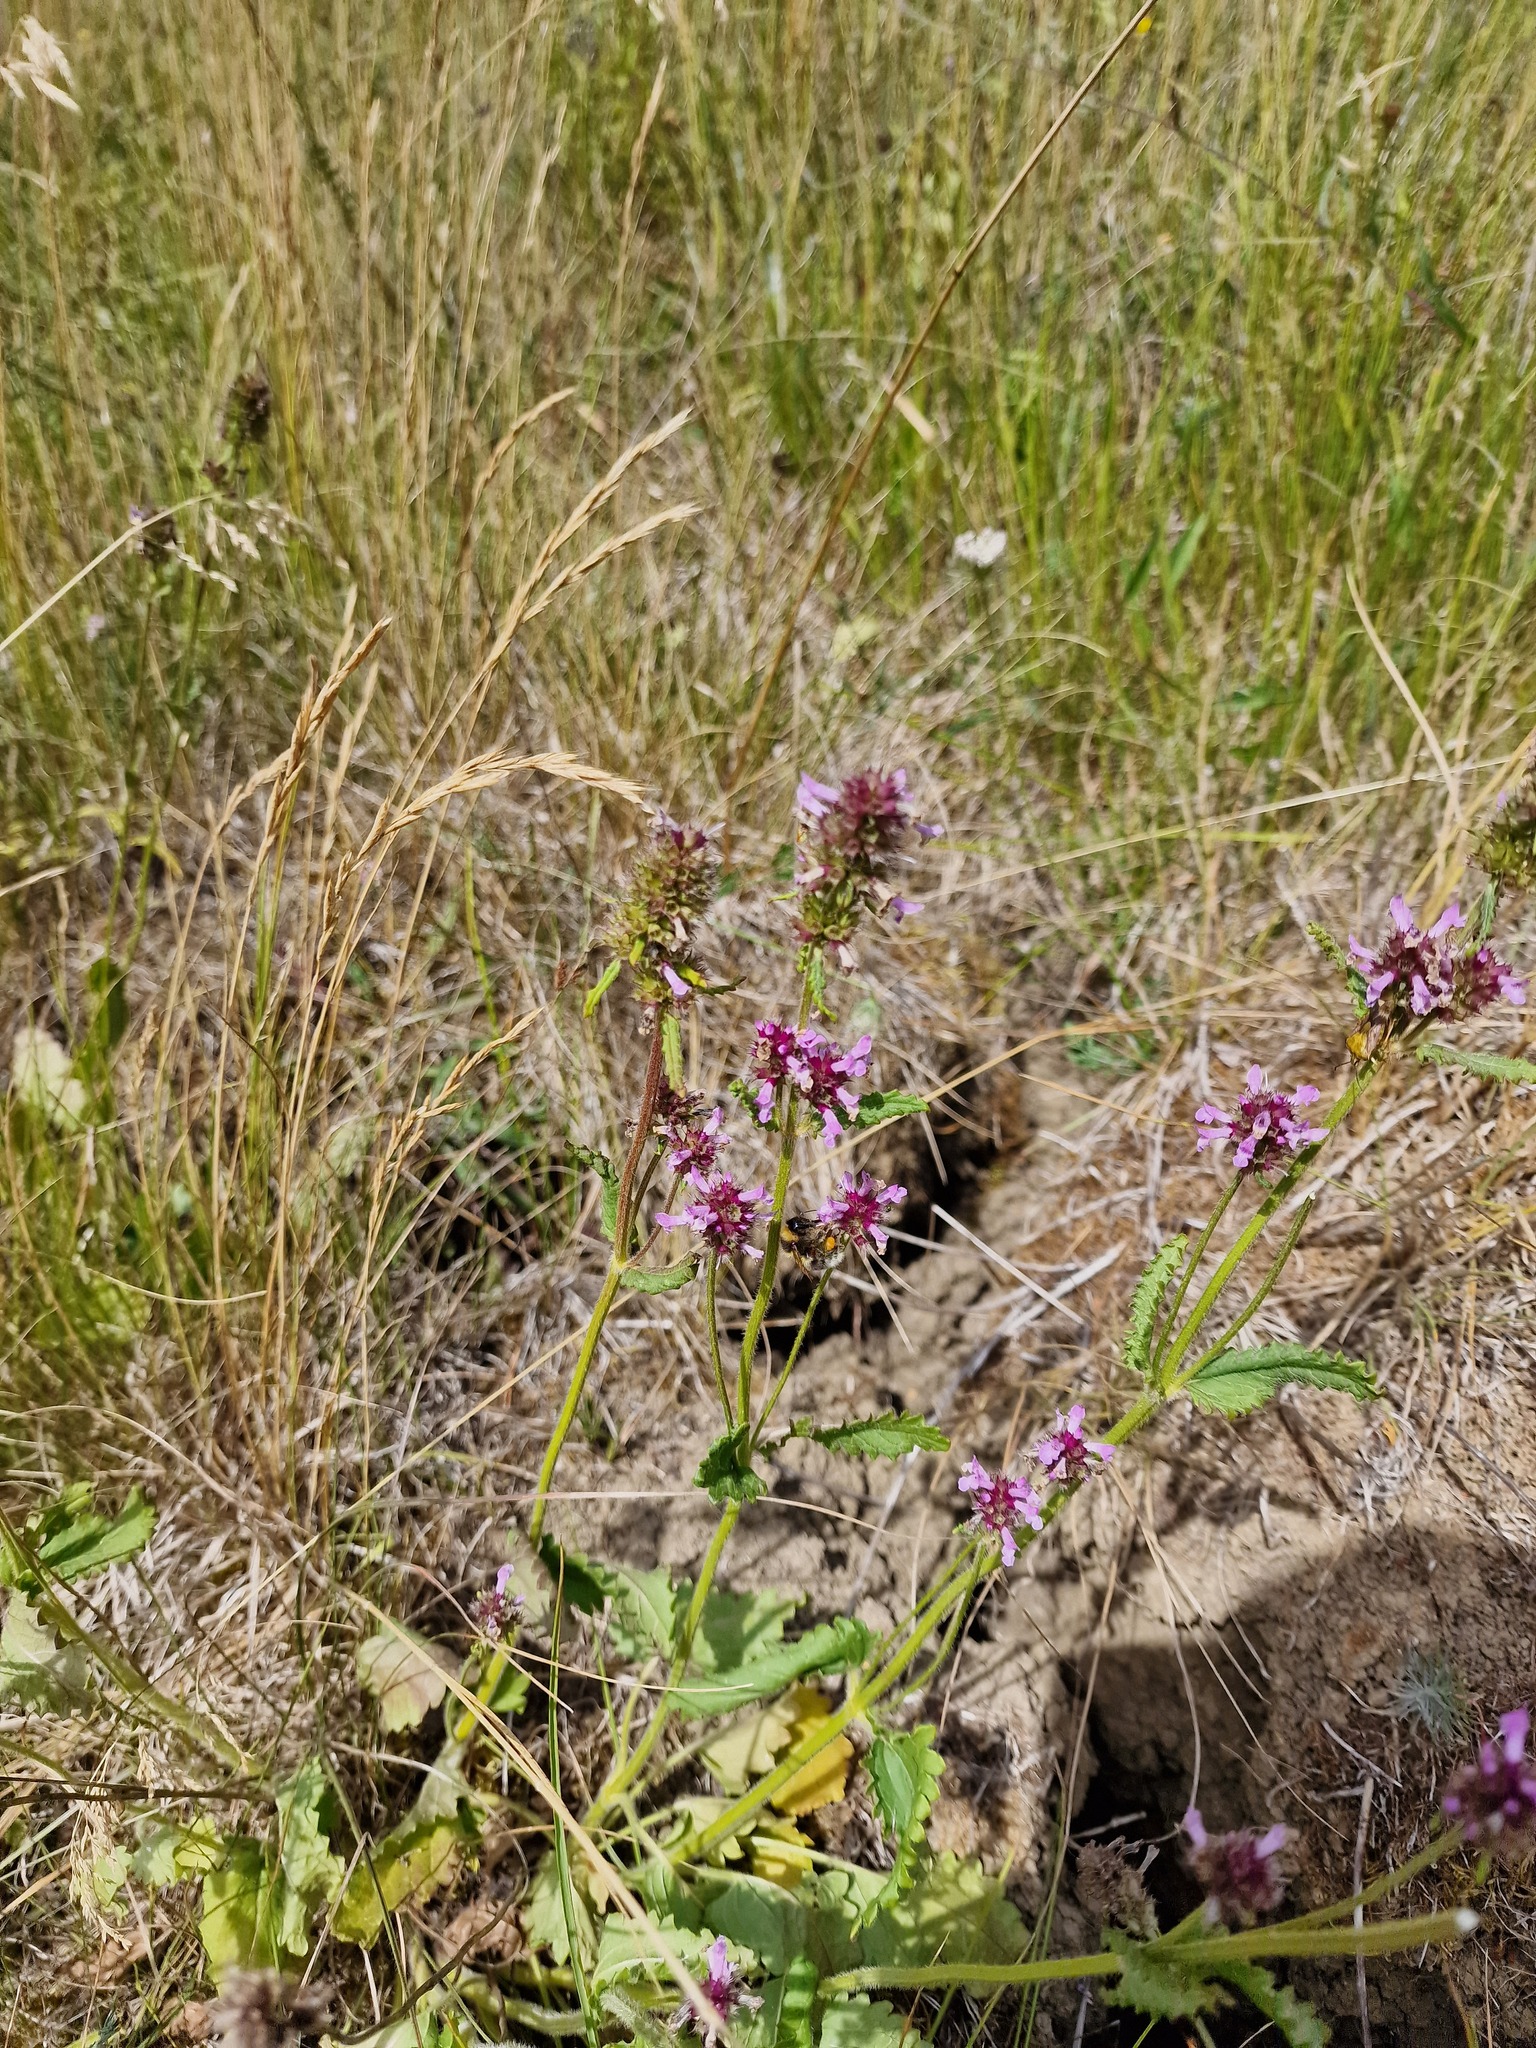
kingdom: Plantae
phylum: Tracheophyta
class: Magnoliopsida
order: Lamiales
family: Lamiaceae
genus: Betonica
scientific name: Betonica officinalis
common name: Bishop's-wort
